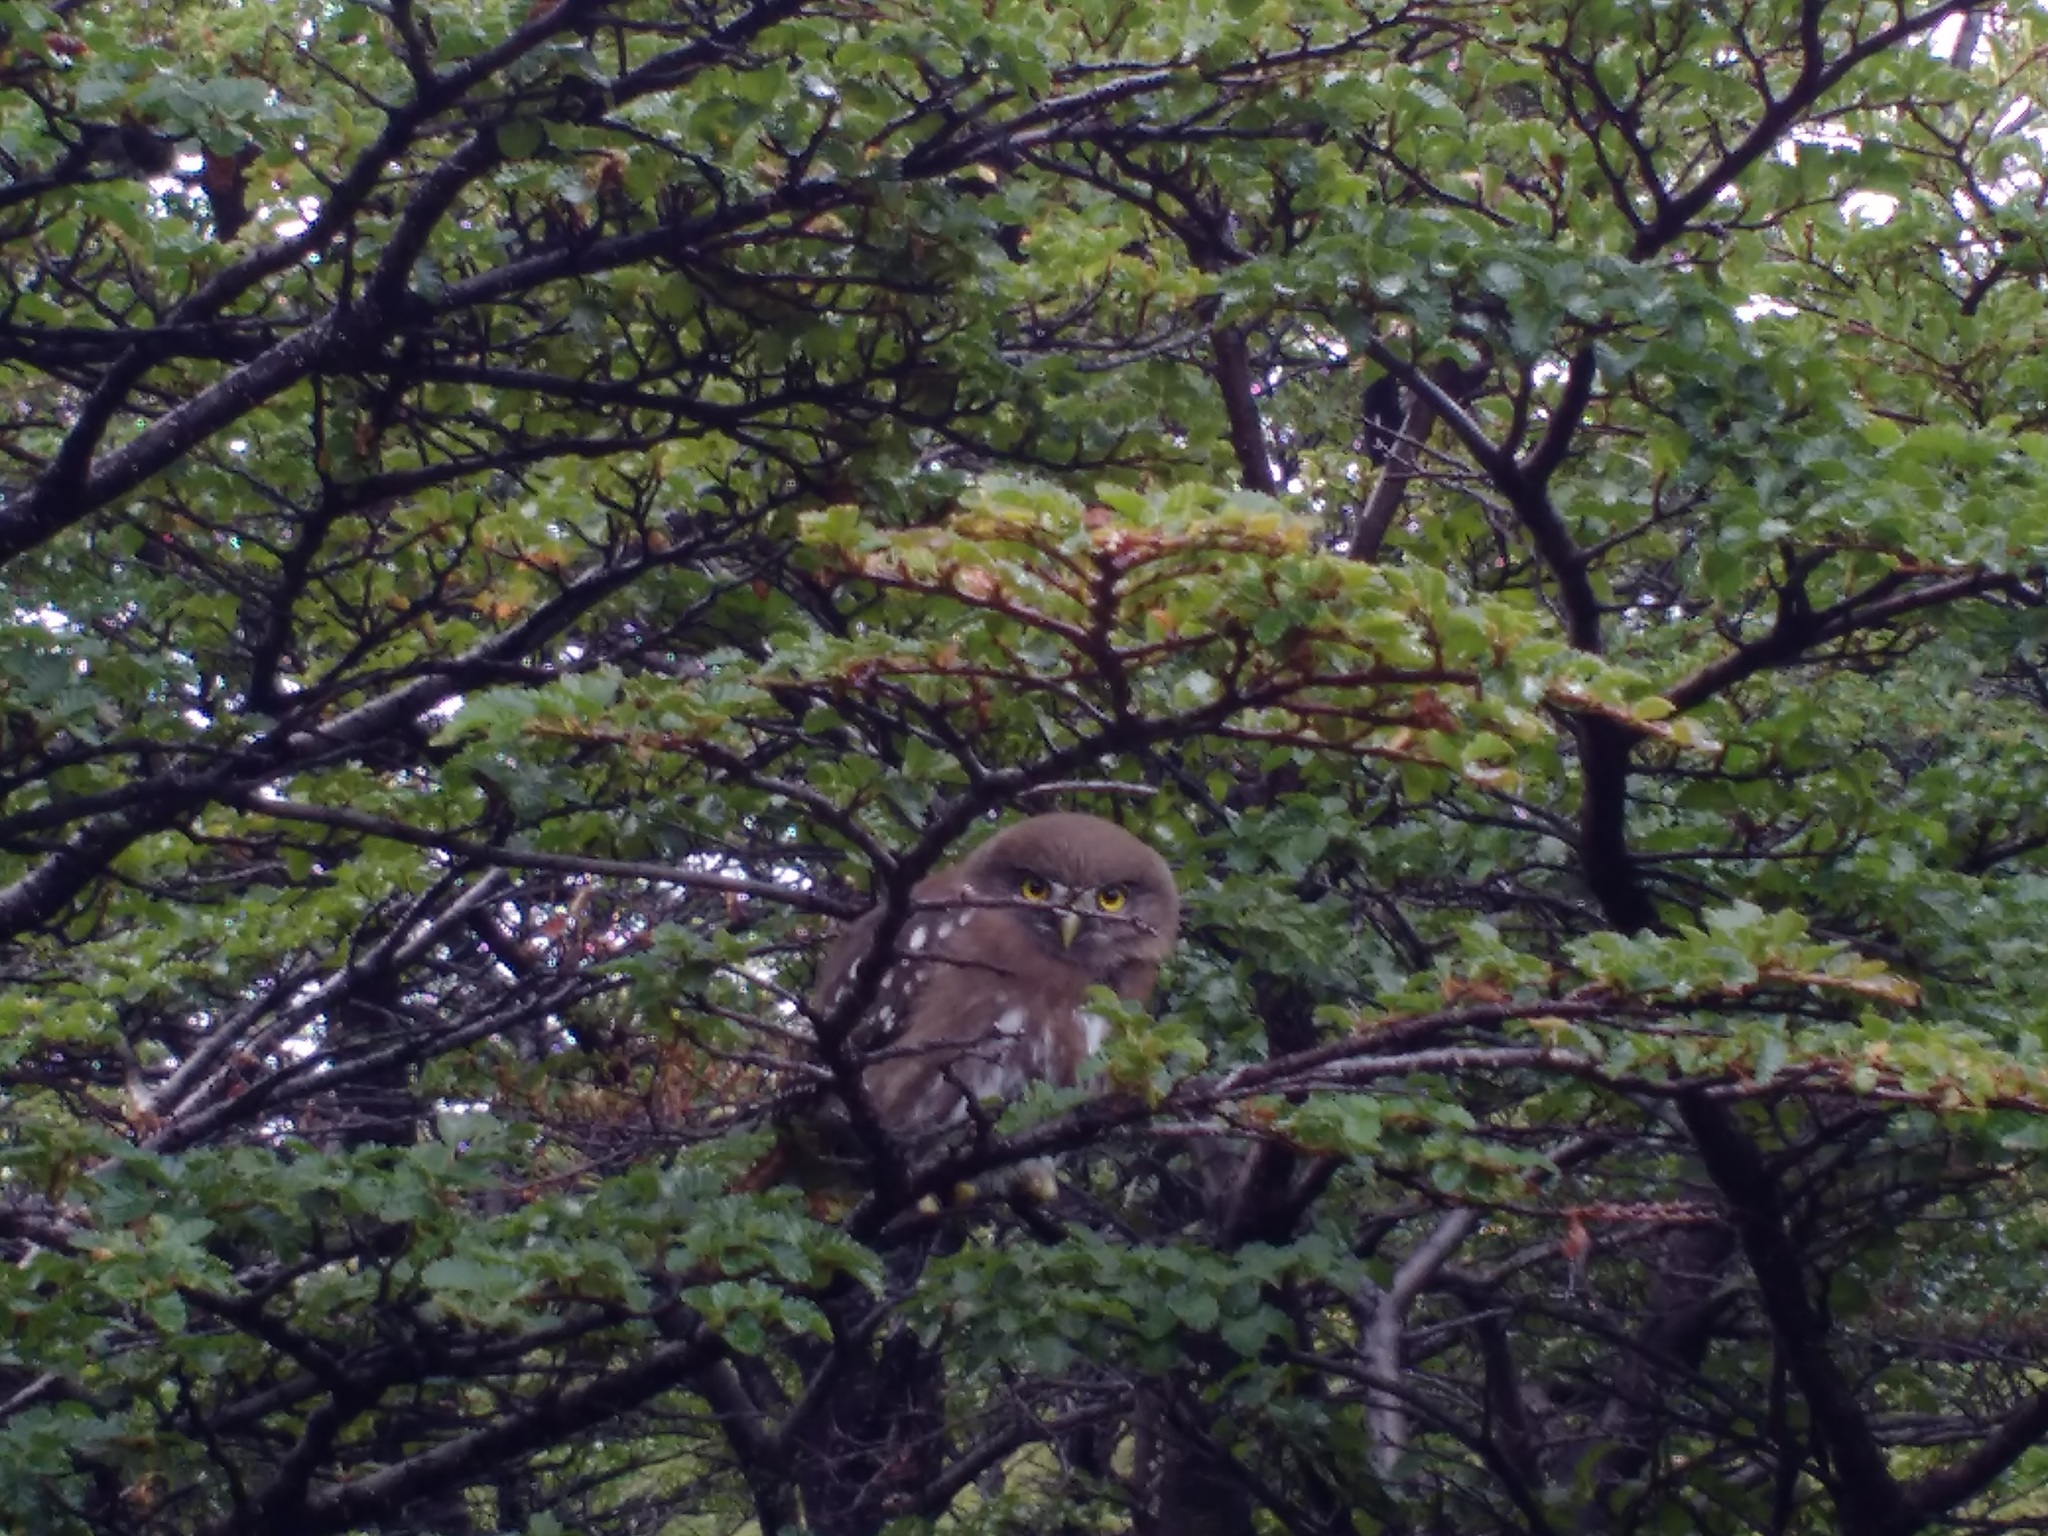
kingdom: Animalia
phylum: Chordata
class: Aves
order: Strigiformes
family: Strigidae
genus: Glaucidium
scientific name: Glaucidium nana
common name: Austral pygmy-owl
